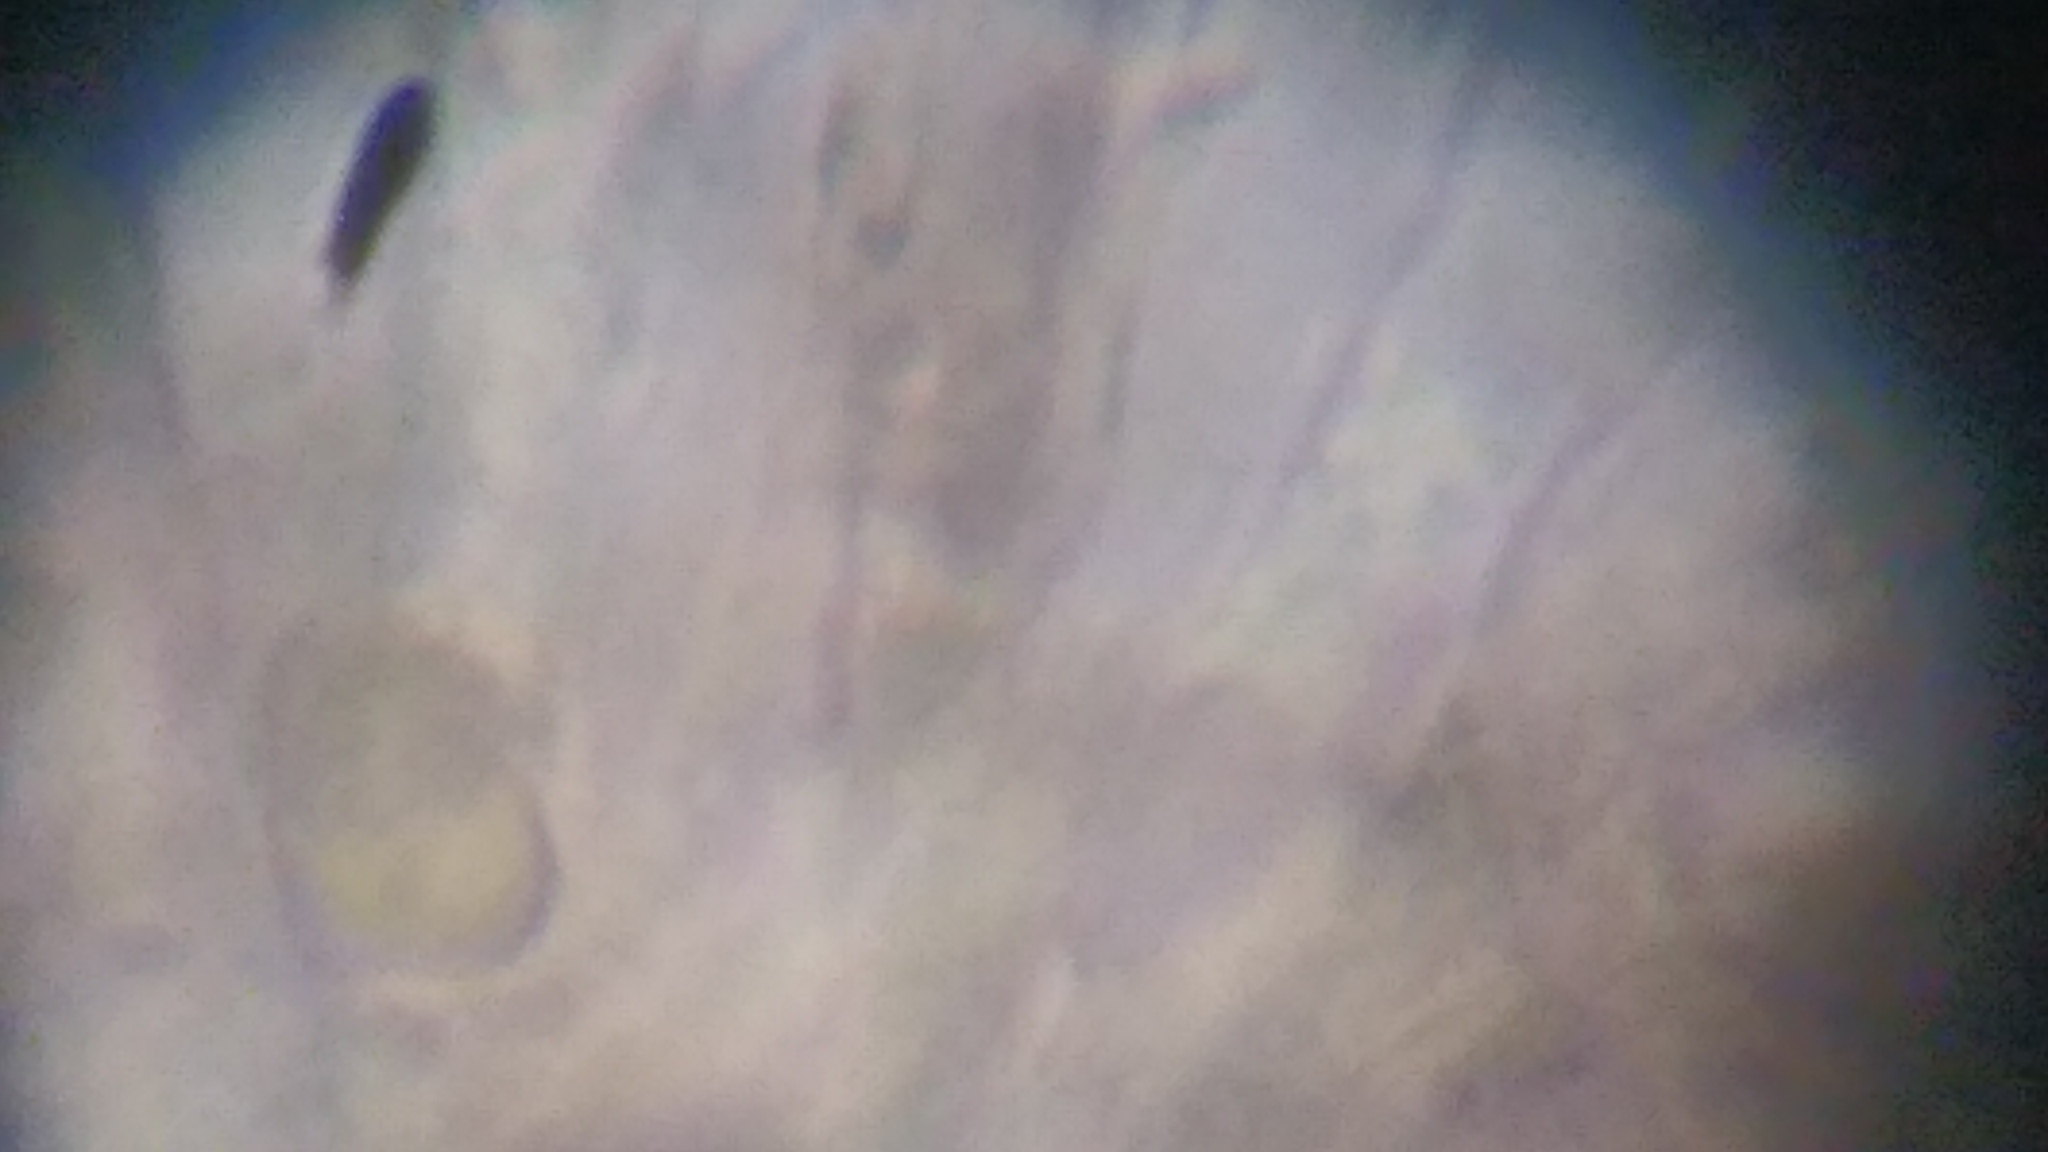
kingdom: Fungi
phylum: Basidiomycota
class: Agaricomycetes
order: Agaricales
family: Clavariaceae
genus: Hodophilus
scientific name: Hodophilus hymenocephalus
